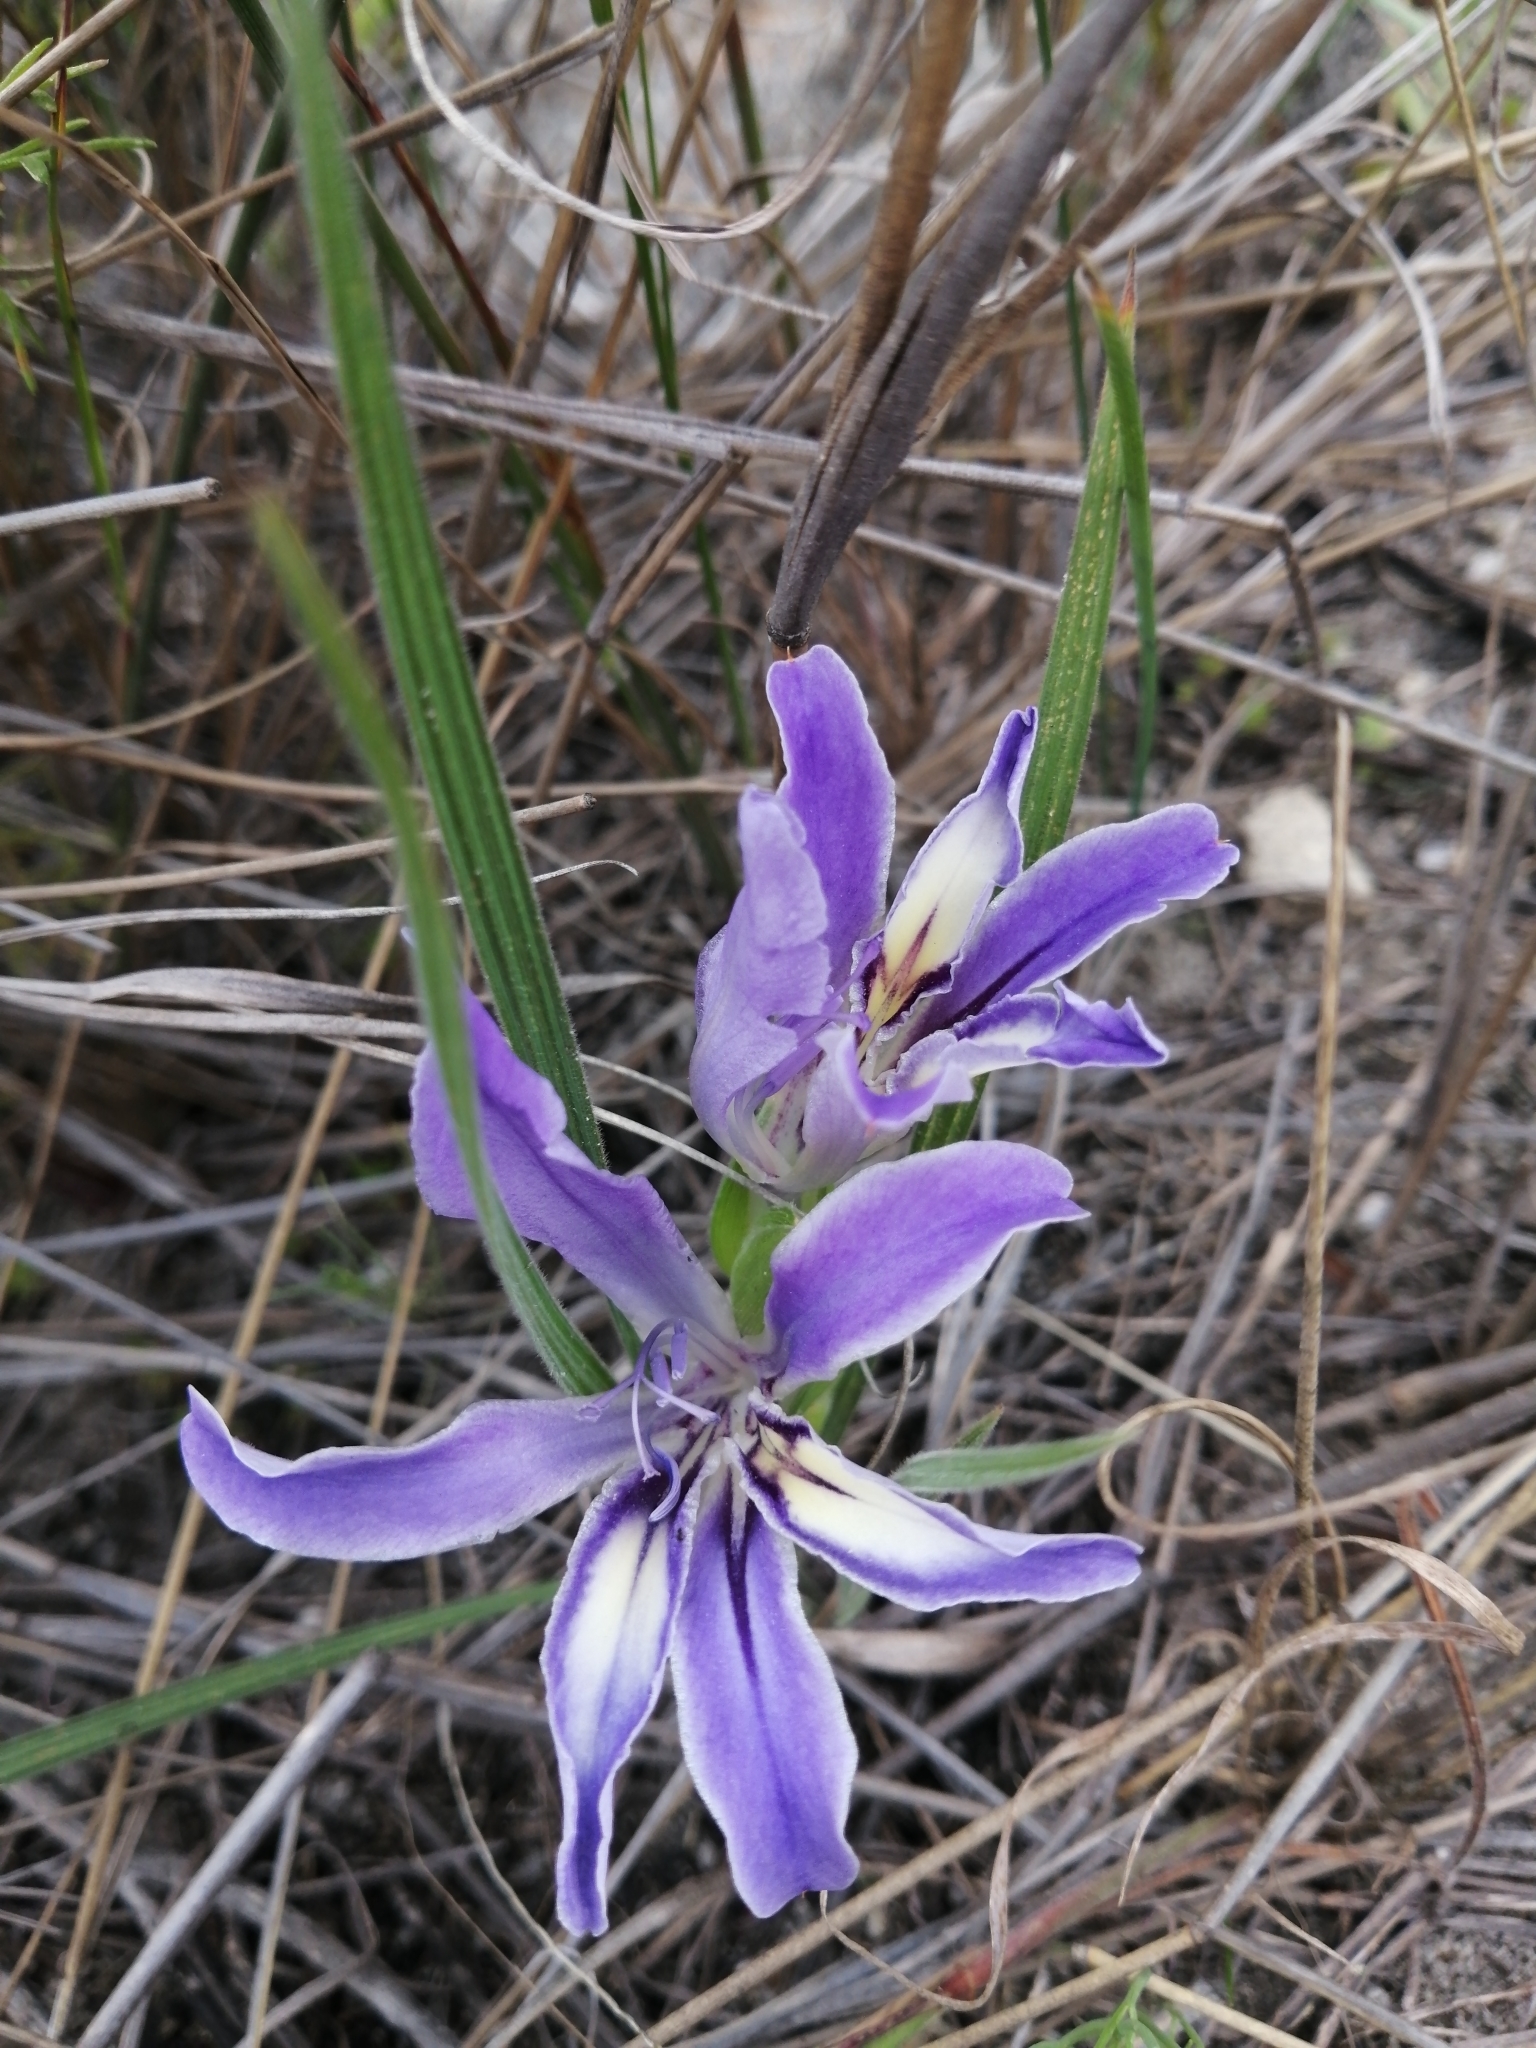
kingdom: Plantae
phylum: Tracheophyta
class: Liliopsida
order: Asparagales
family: Iridaceae
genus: Babiana
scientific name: Babiana ambigua
